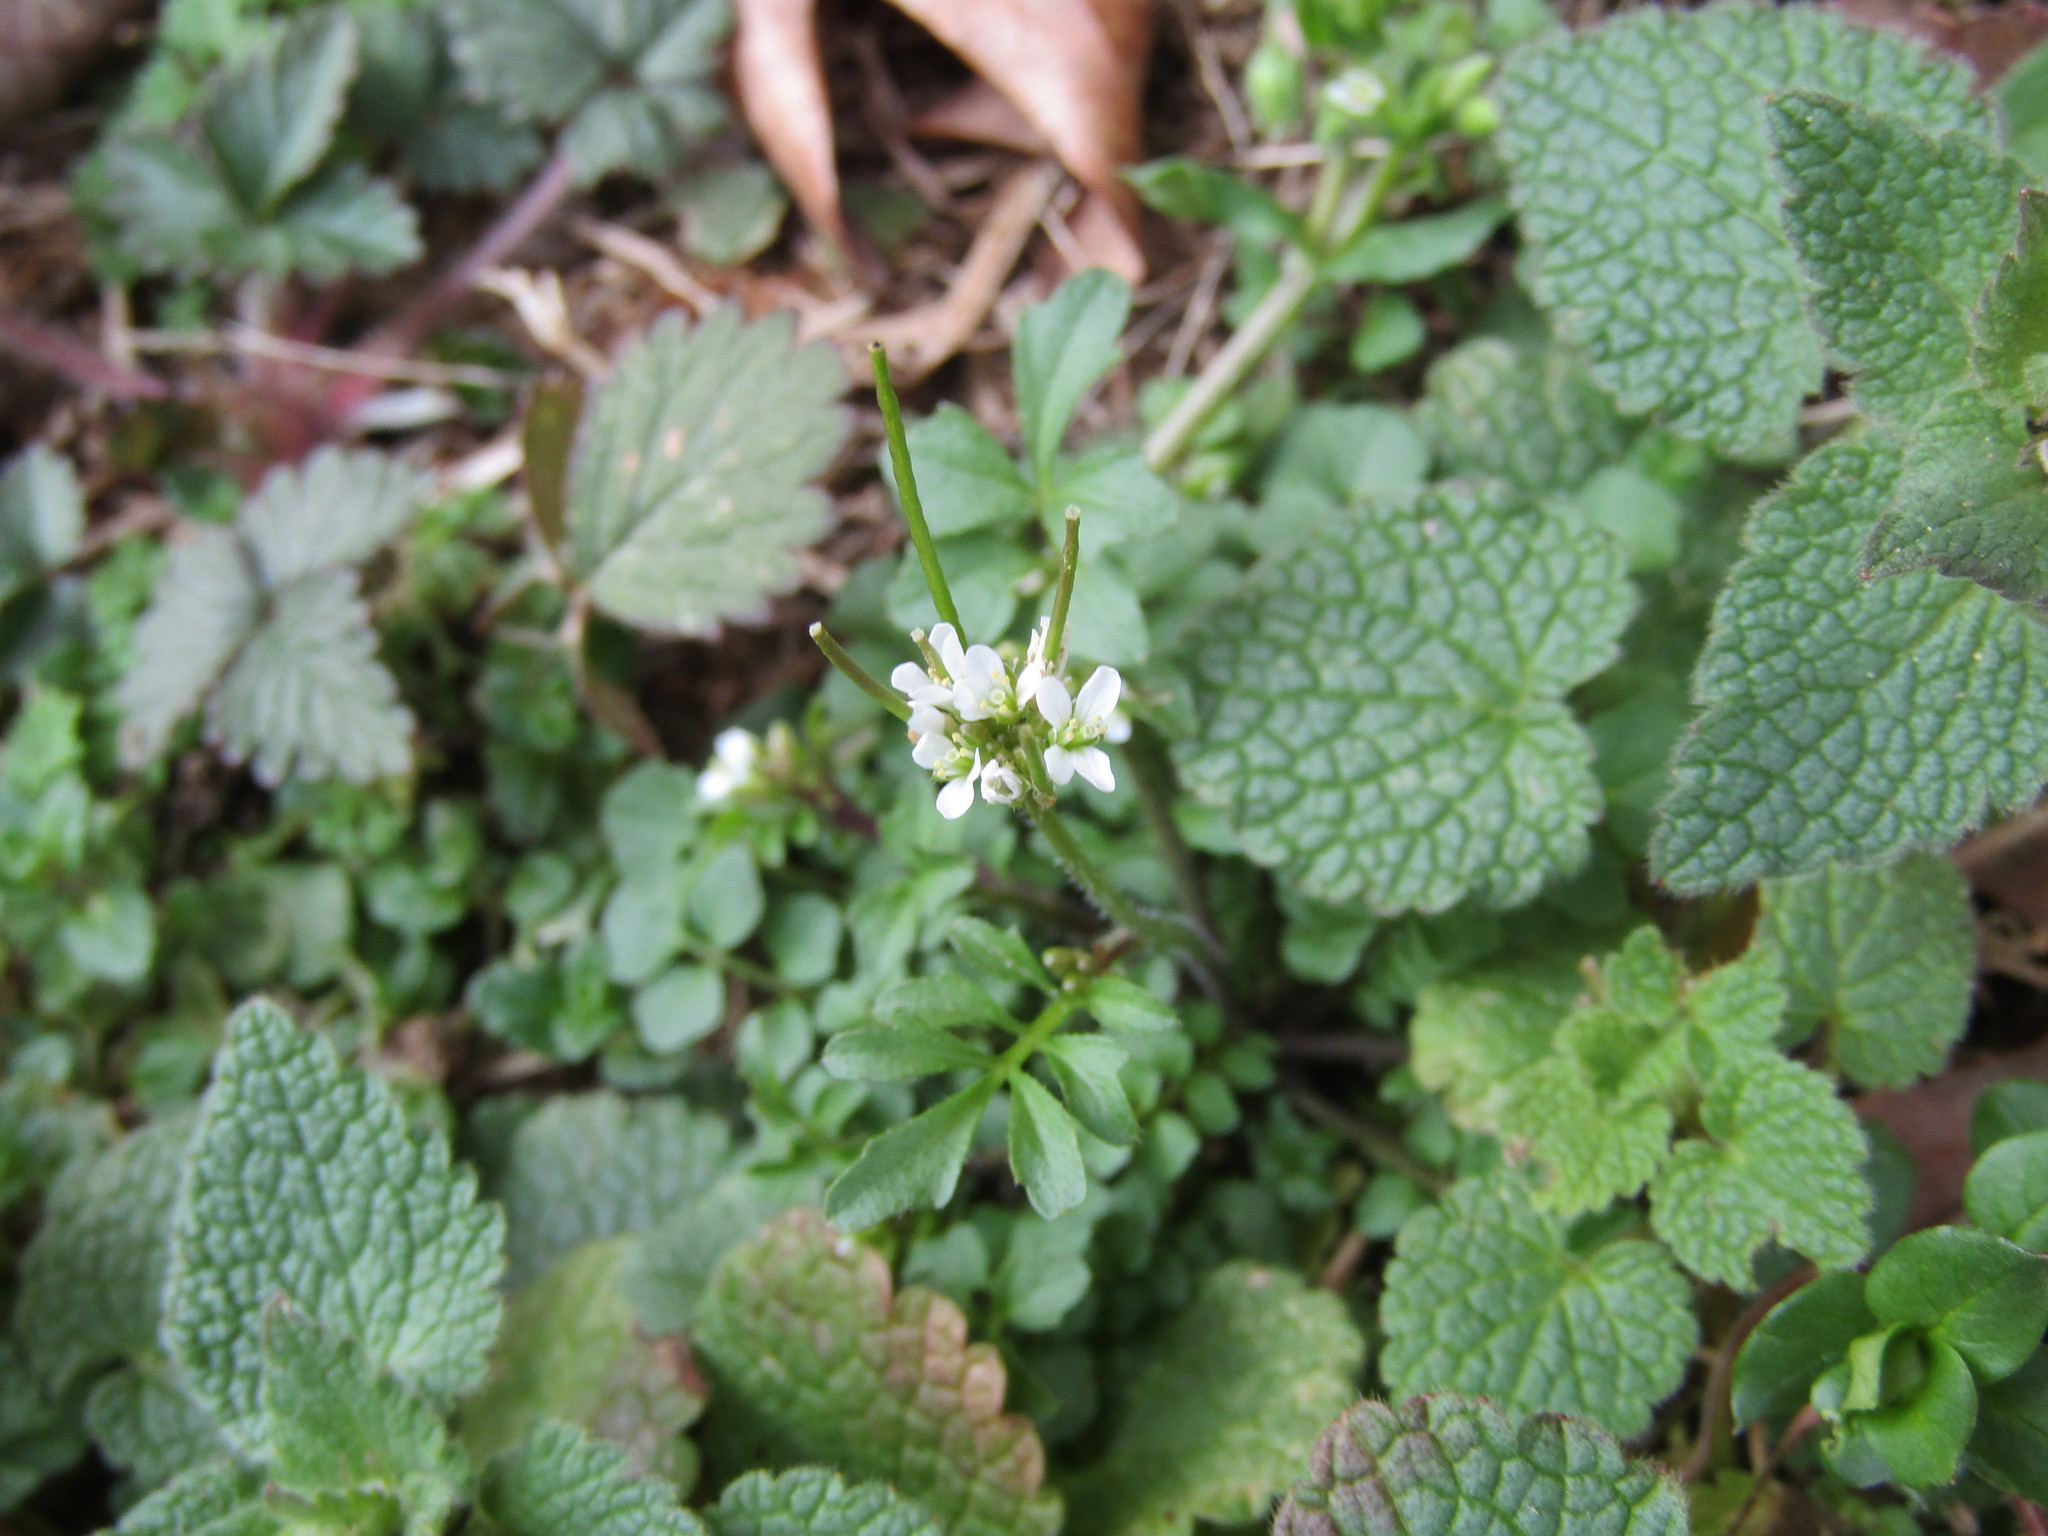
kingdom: Plantae
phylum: Tracheophyta
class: Magnoliopsida
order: Brassicales
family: Brassicaceae
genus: Cardamine
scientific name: Cardamine hirsuta
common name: Hairy bittercress
